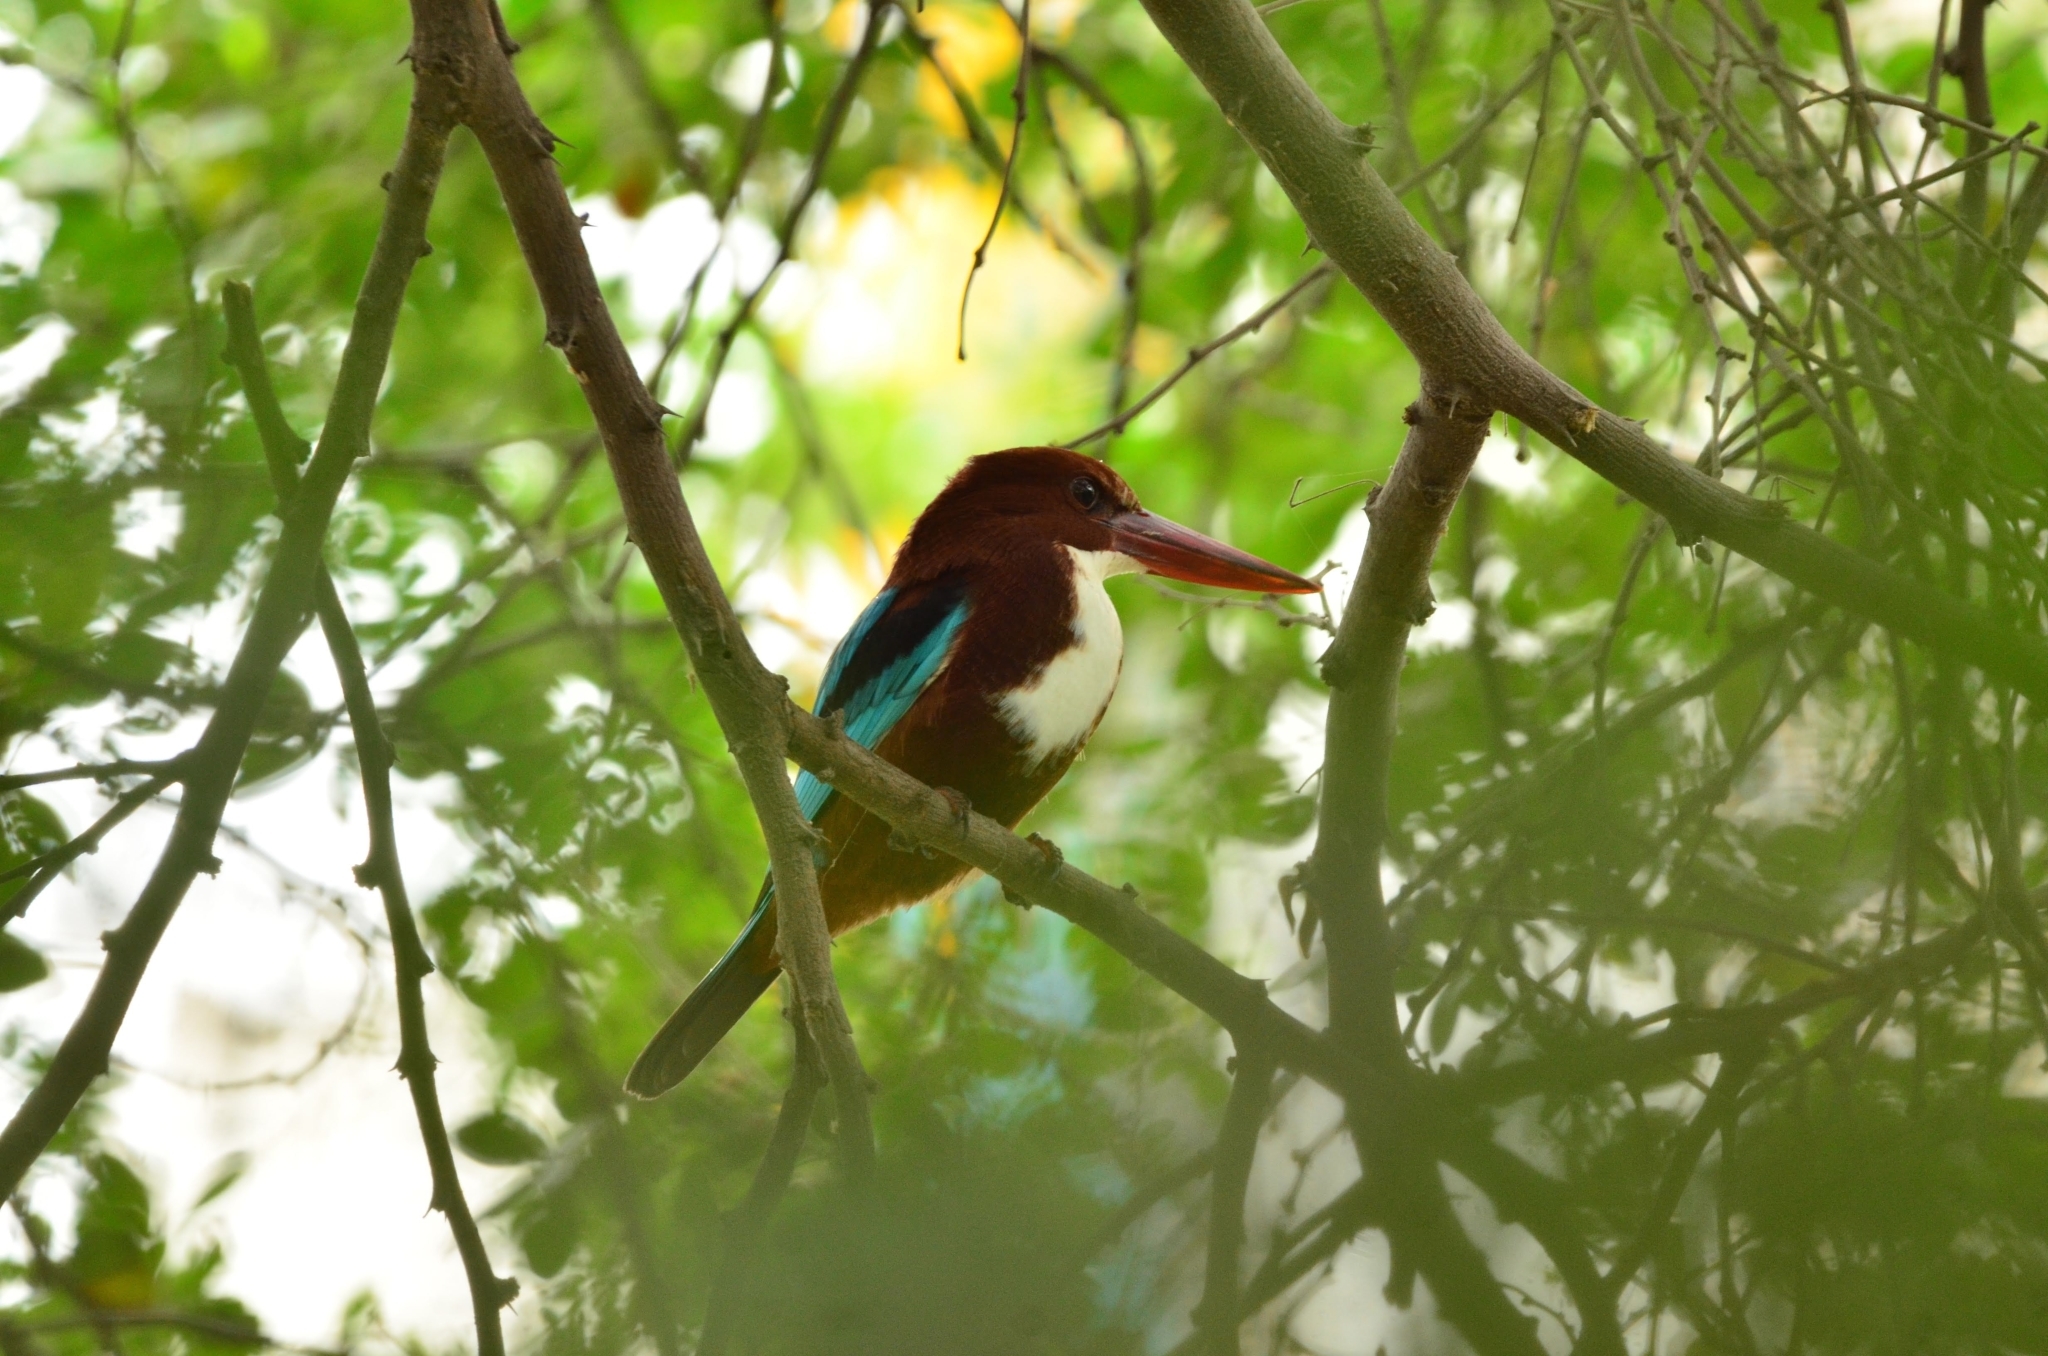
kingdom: Animalia
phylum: Chordata
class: Aves
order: Coraciiformes
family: Alcedinidae
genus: Halcyon
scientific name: Halcyon smyrnensis
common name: White-throated kingfisher
